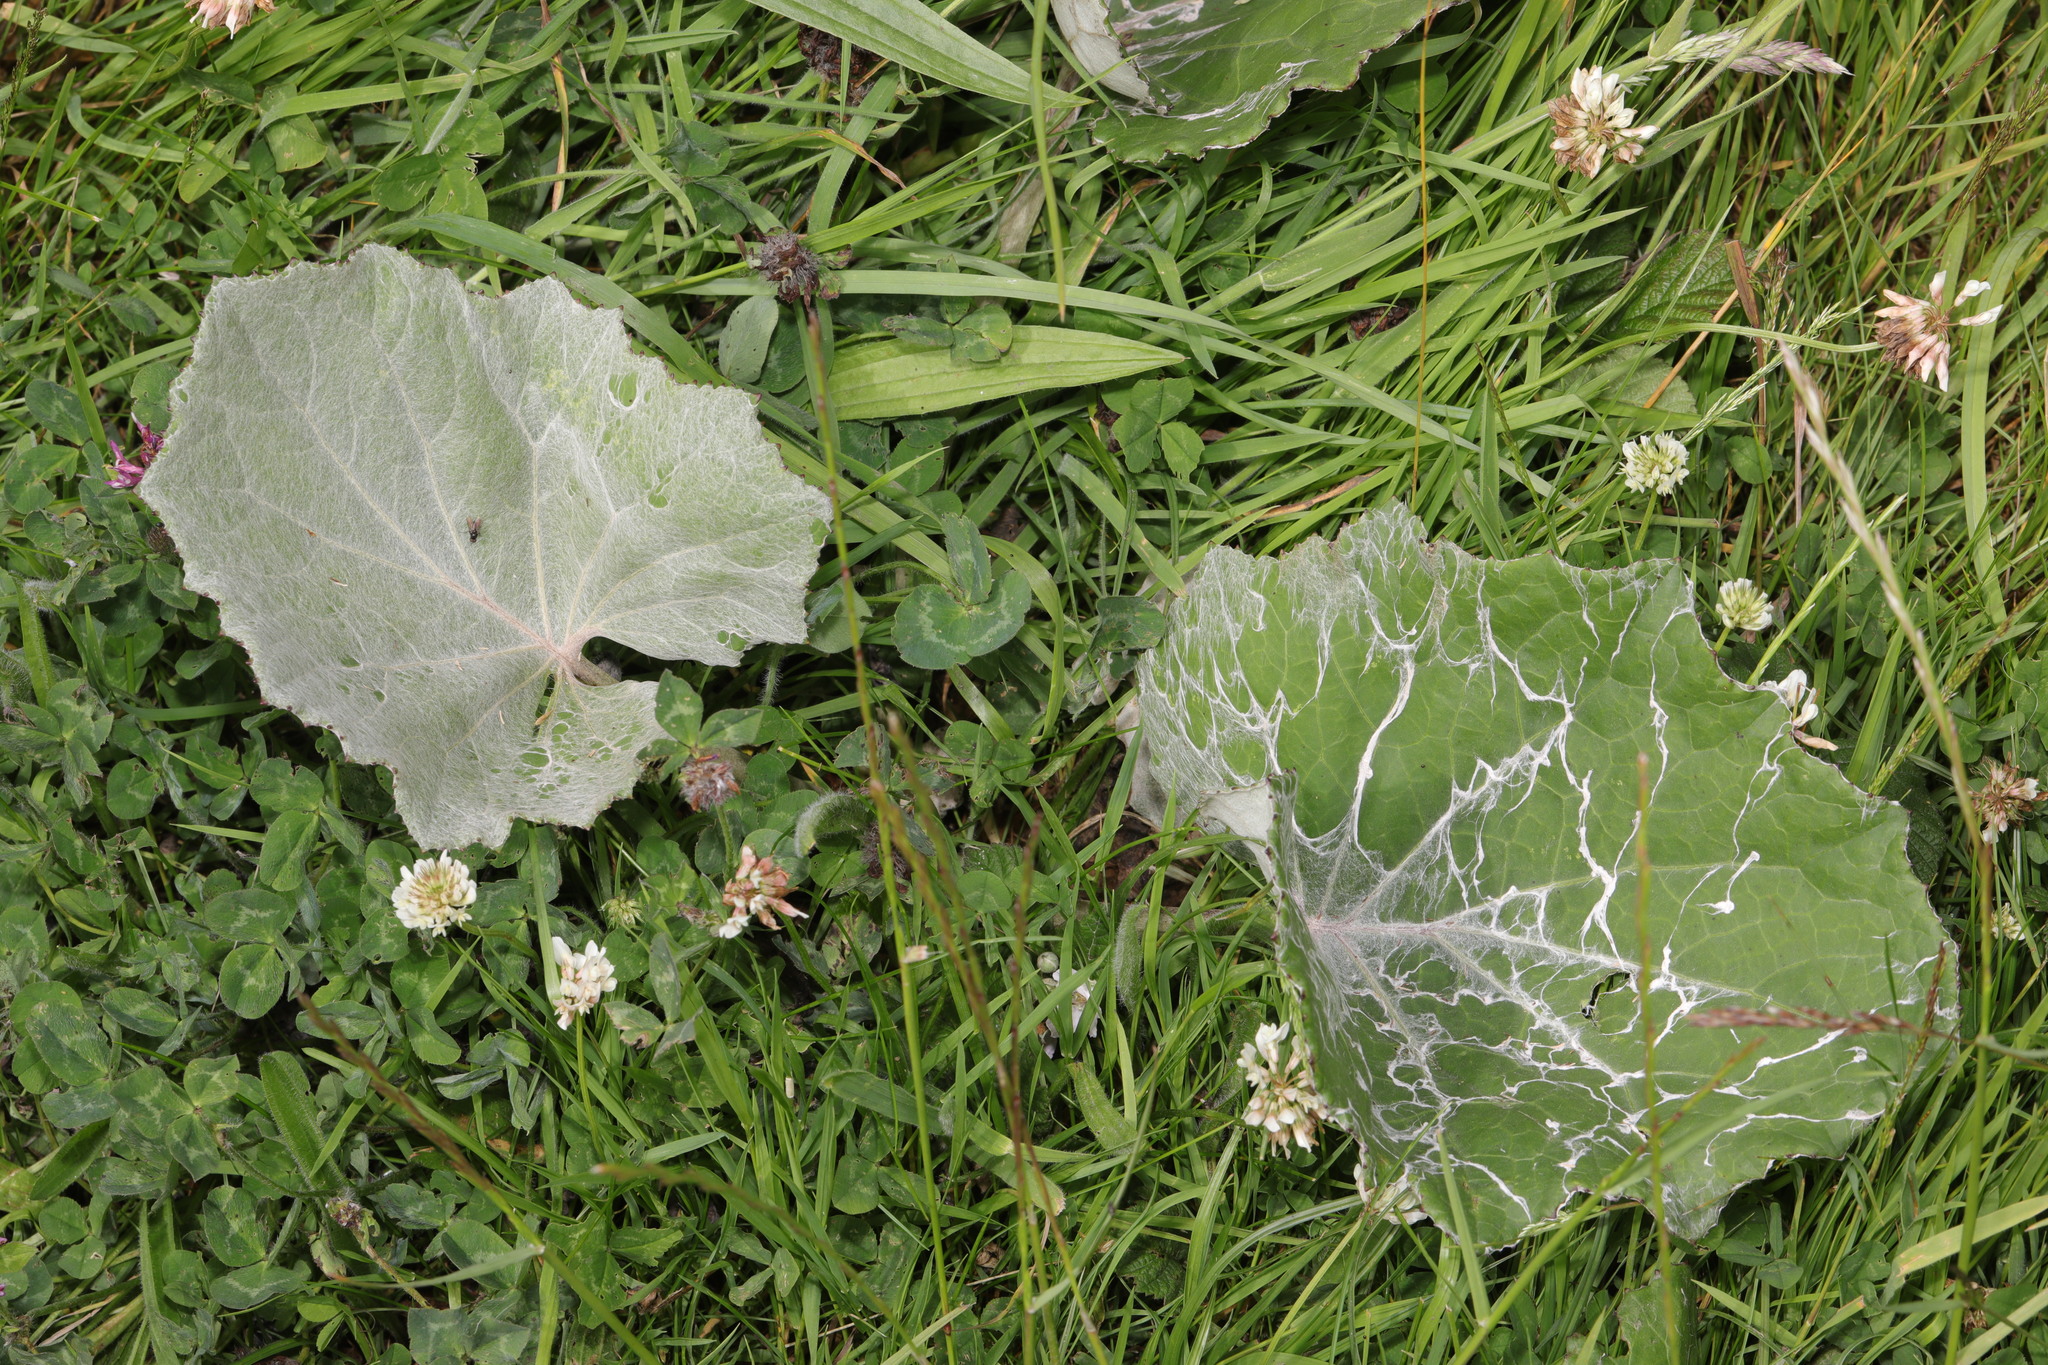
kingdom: Plantae
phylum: Tracheophyta
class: Magnoliopsida
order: Asterales
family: Asteraceae
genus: Tussilago
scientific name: Tussilago farfara
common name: Coltsfoot
